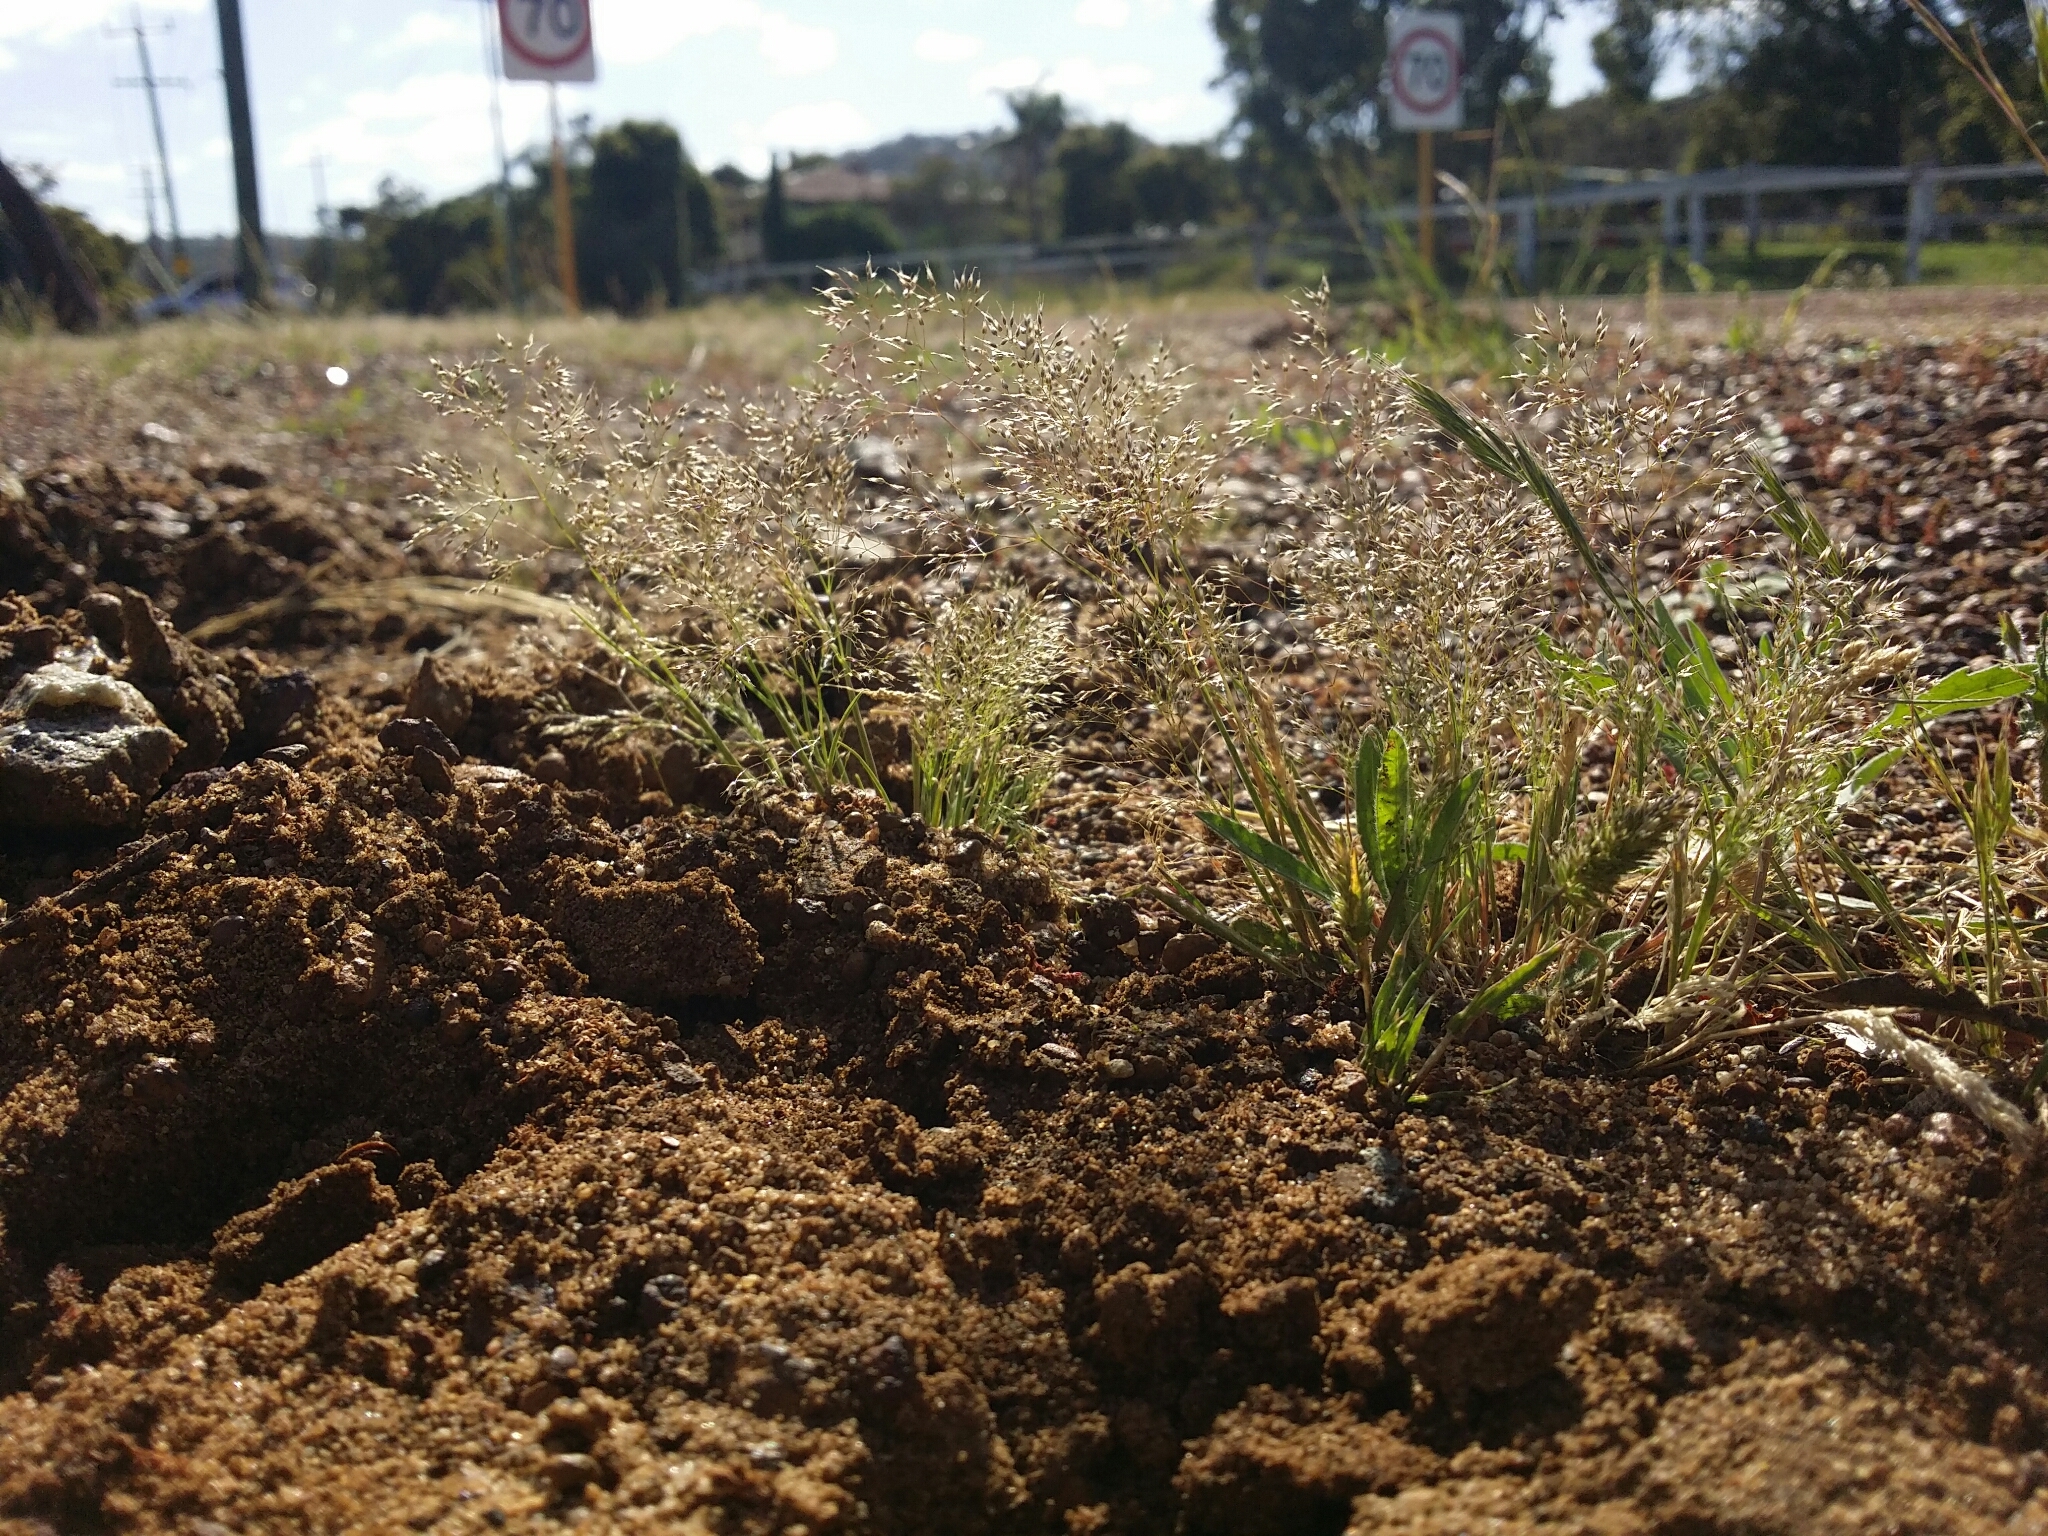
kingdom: Plantae
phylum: Tracheophyta
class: Liliopsida
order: Poales
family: Poaceae
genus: Aira
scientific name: Aira caryophyllea
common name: Silver hairgrass
